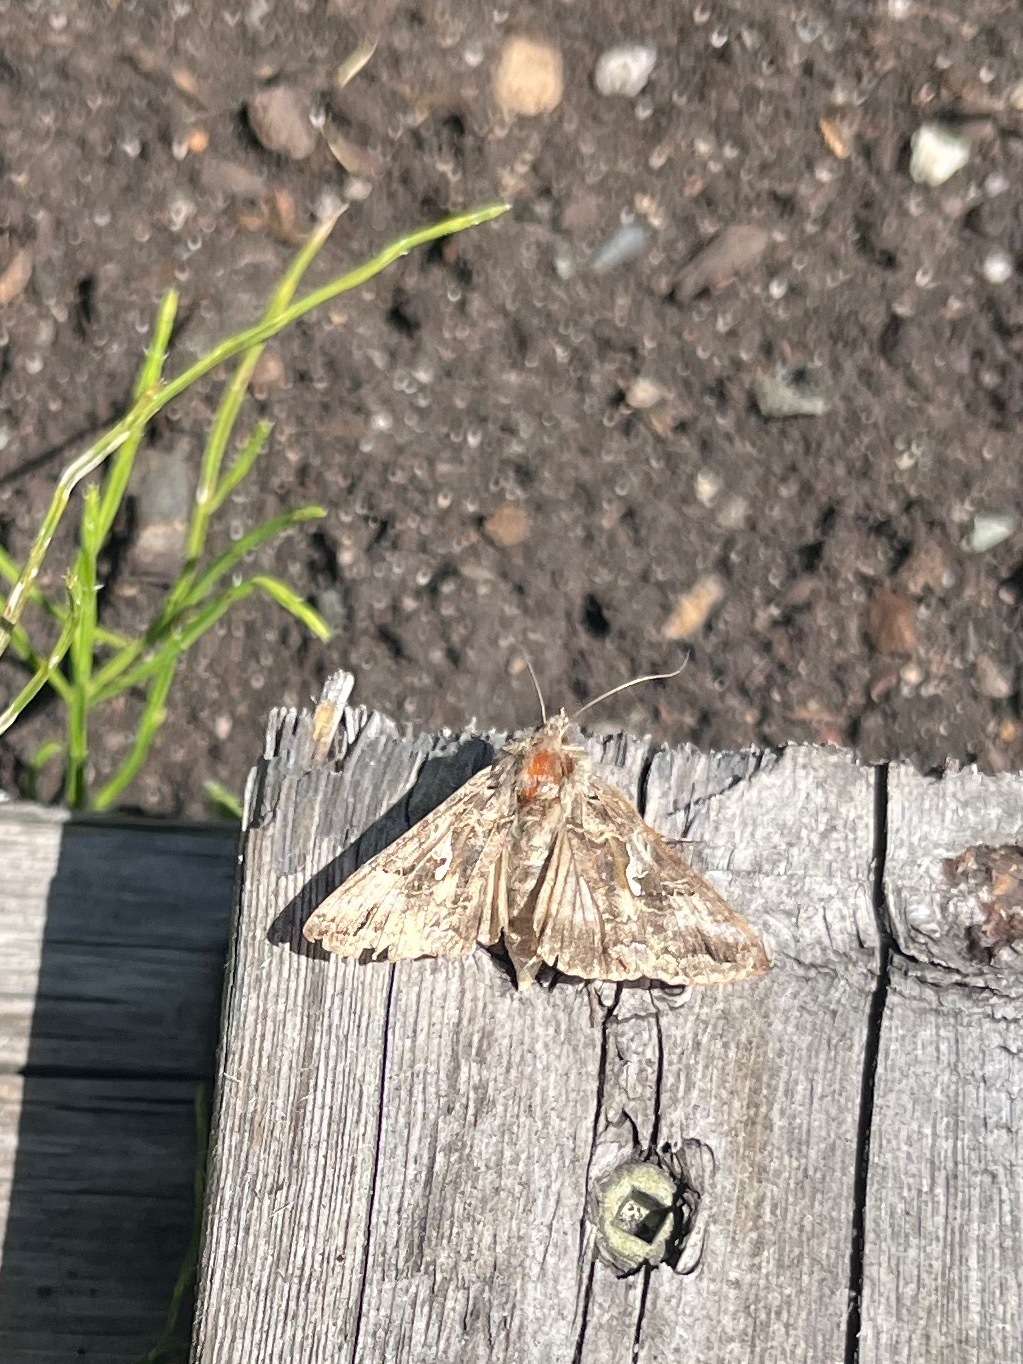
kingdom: Animalia
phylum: Arthropoda
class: Insecta
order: Lepidoptera
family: Noctuidae
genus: Autographa
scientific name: Autographa californica
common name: Alfalfa looper
